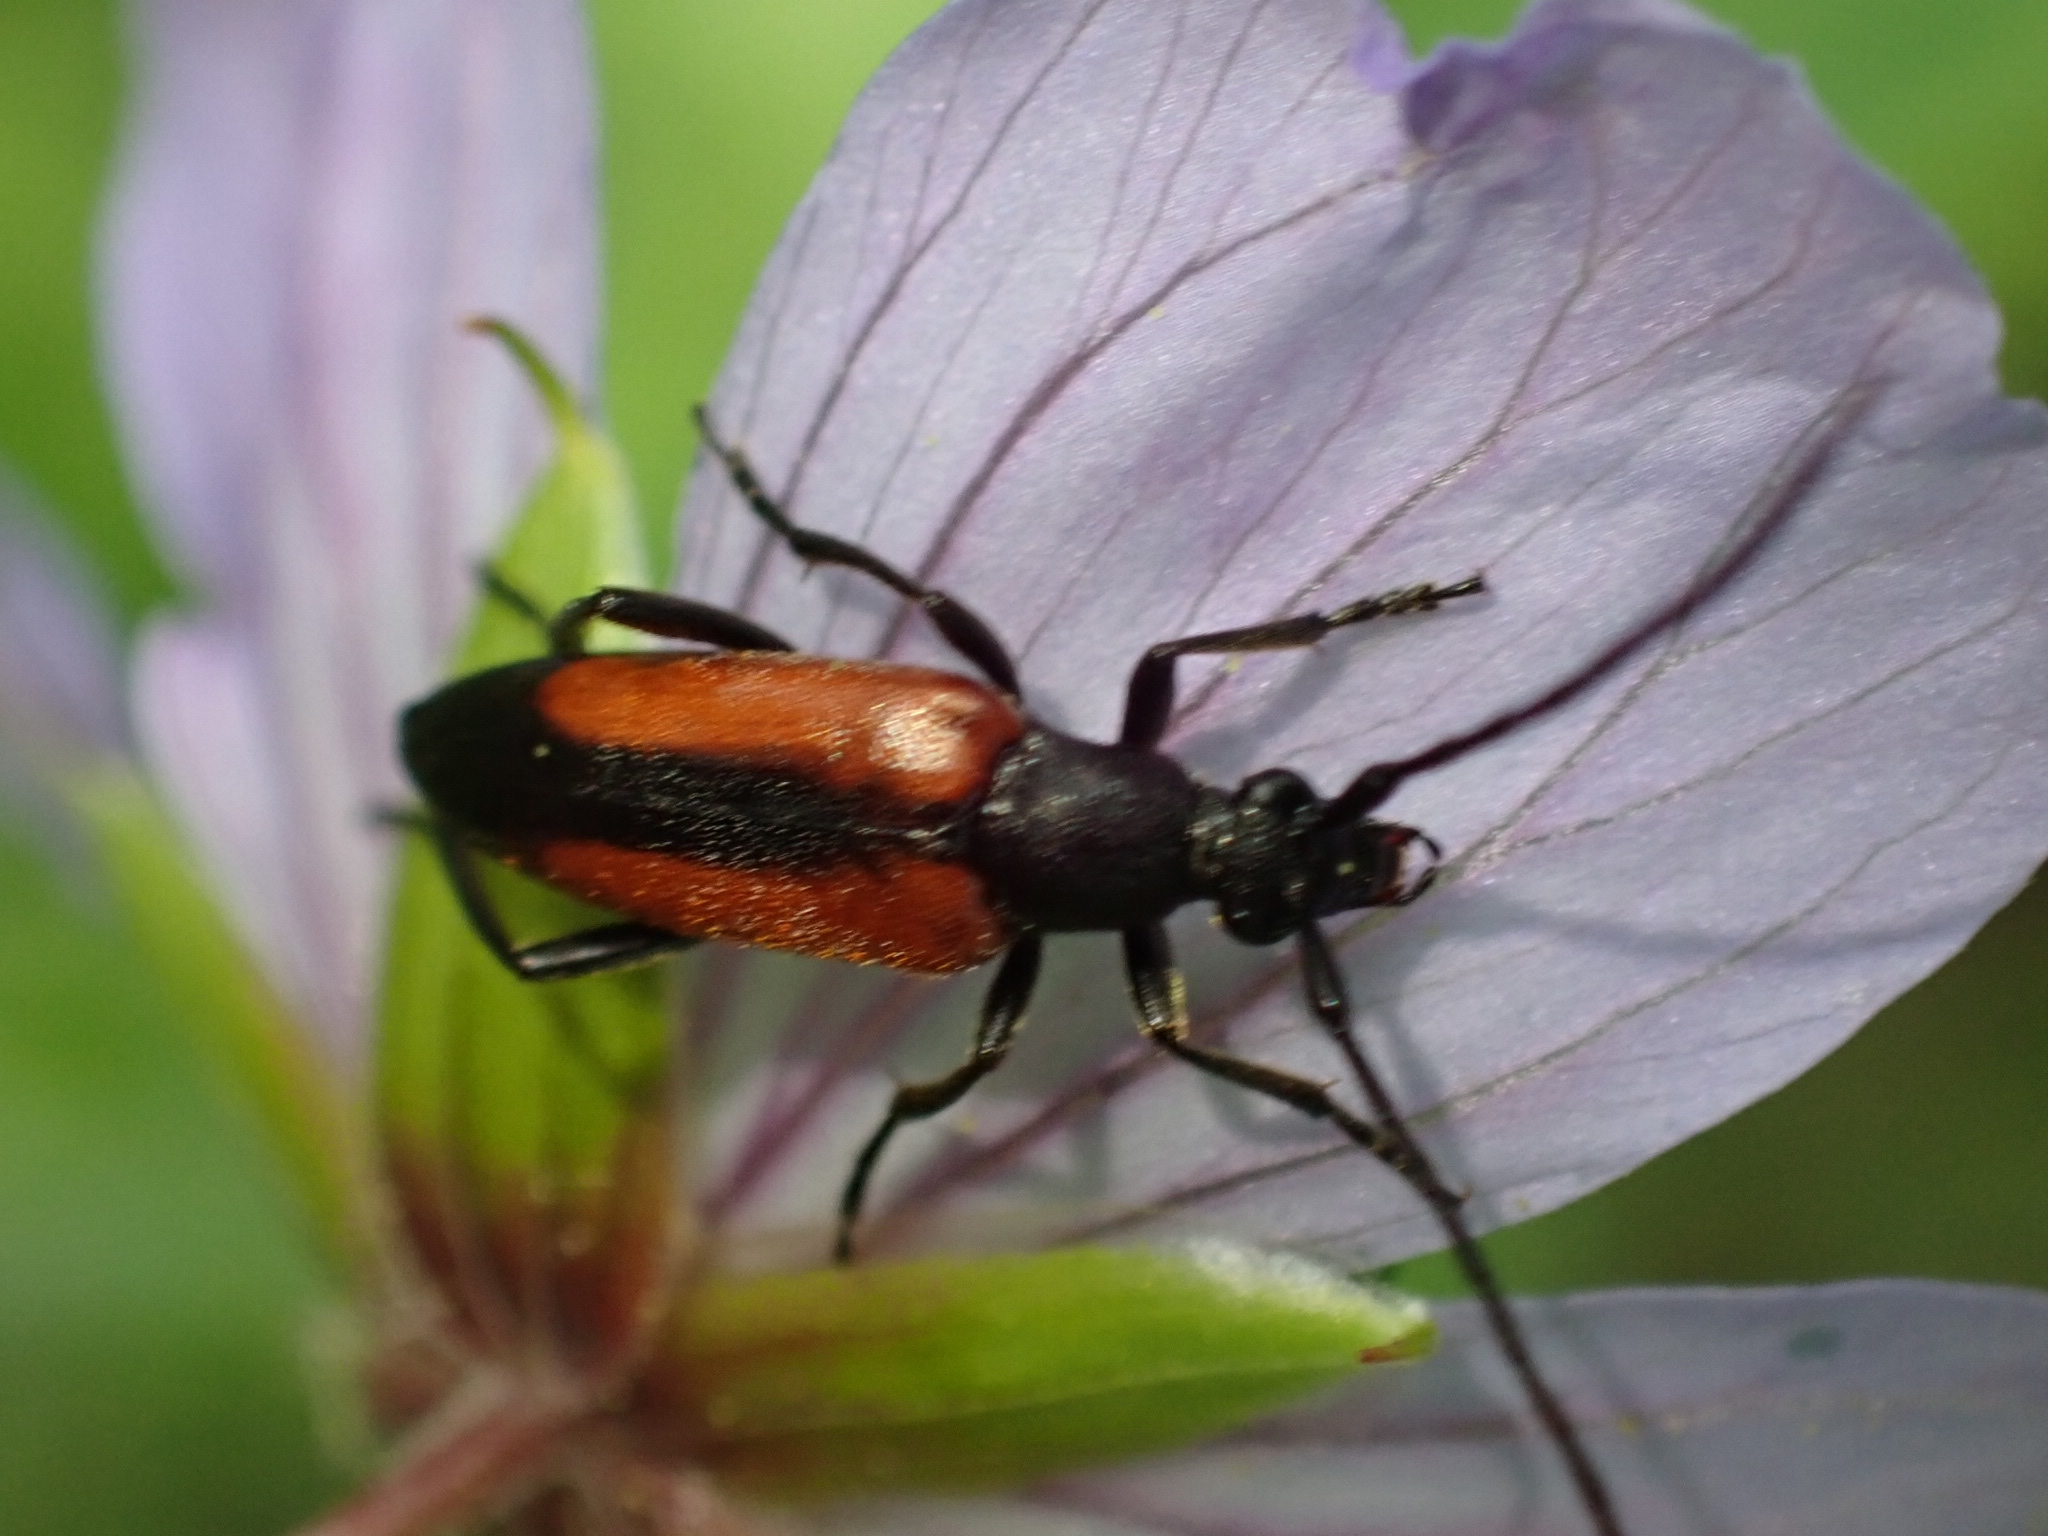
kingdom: Animalia
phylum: Arthropoda
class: Insecta
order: Coleoptera
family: Cerambycidae
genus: Stenurella
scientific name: Stenurella melanura
